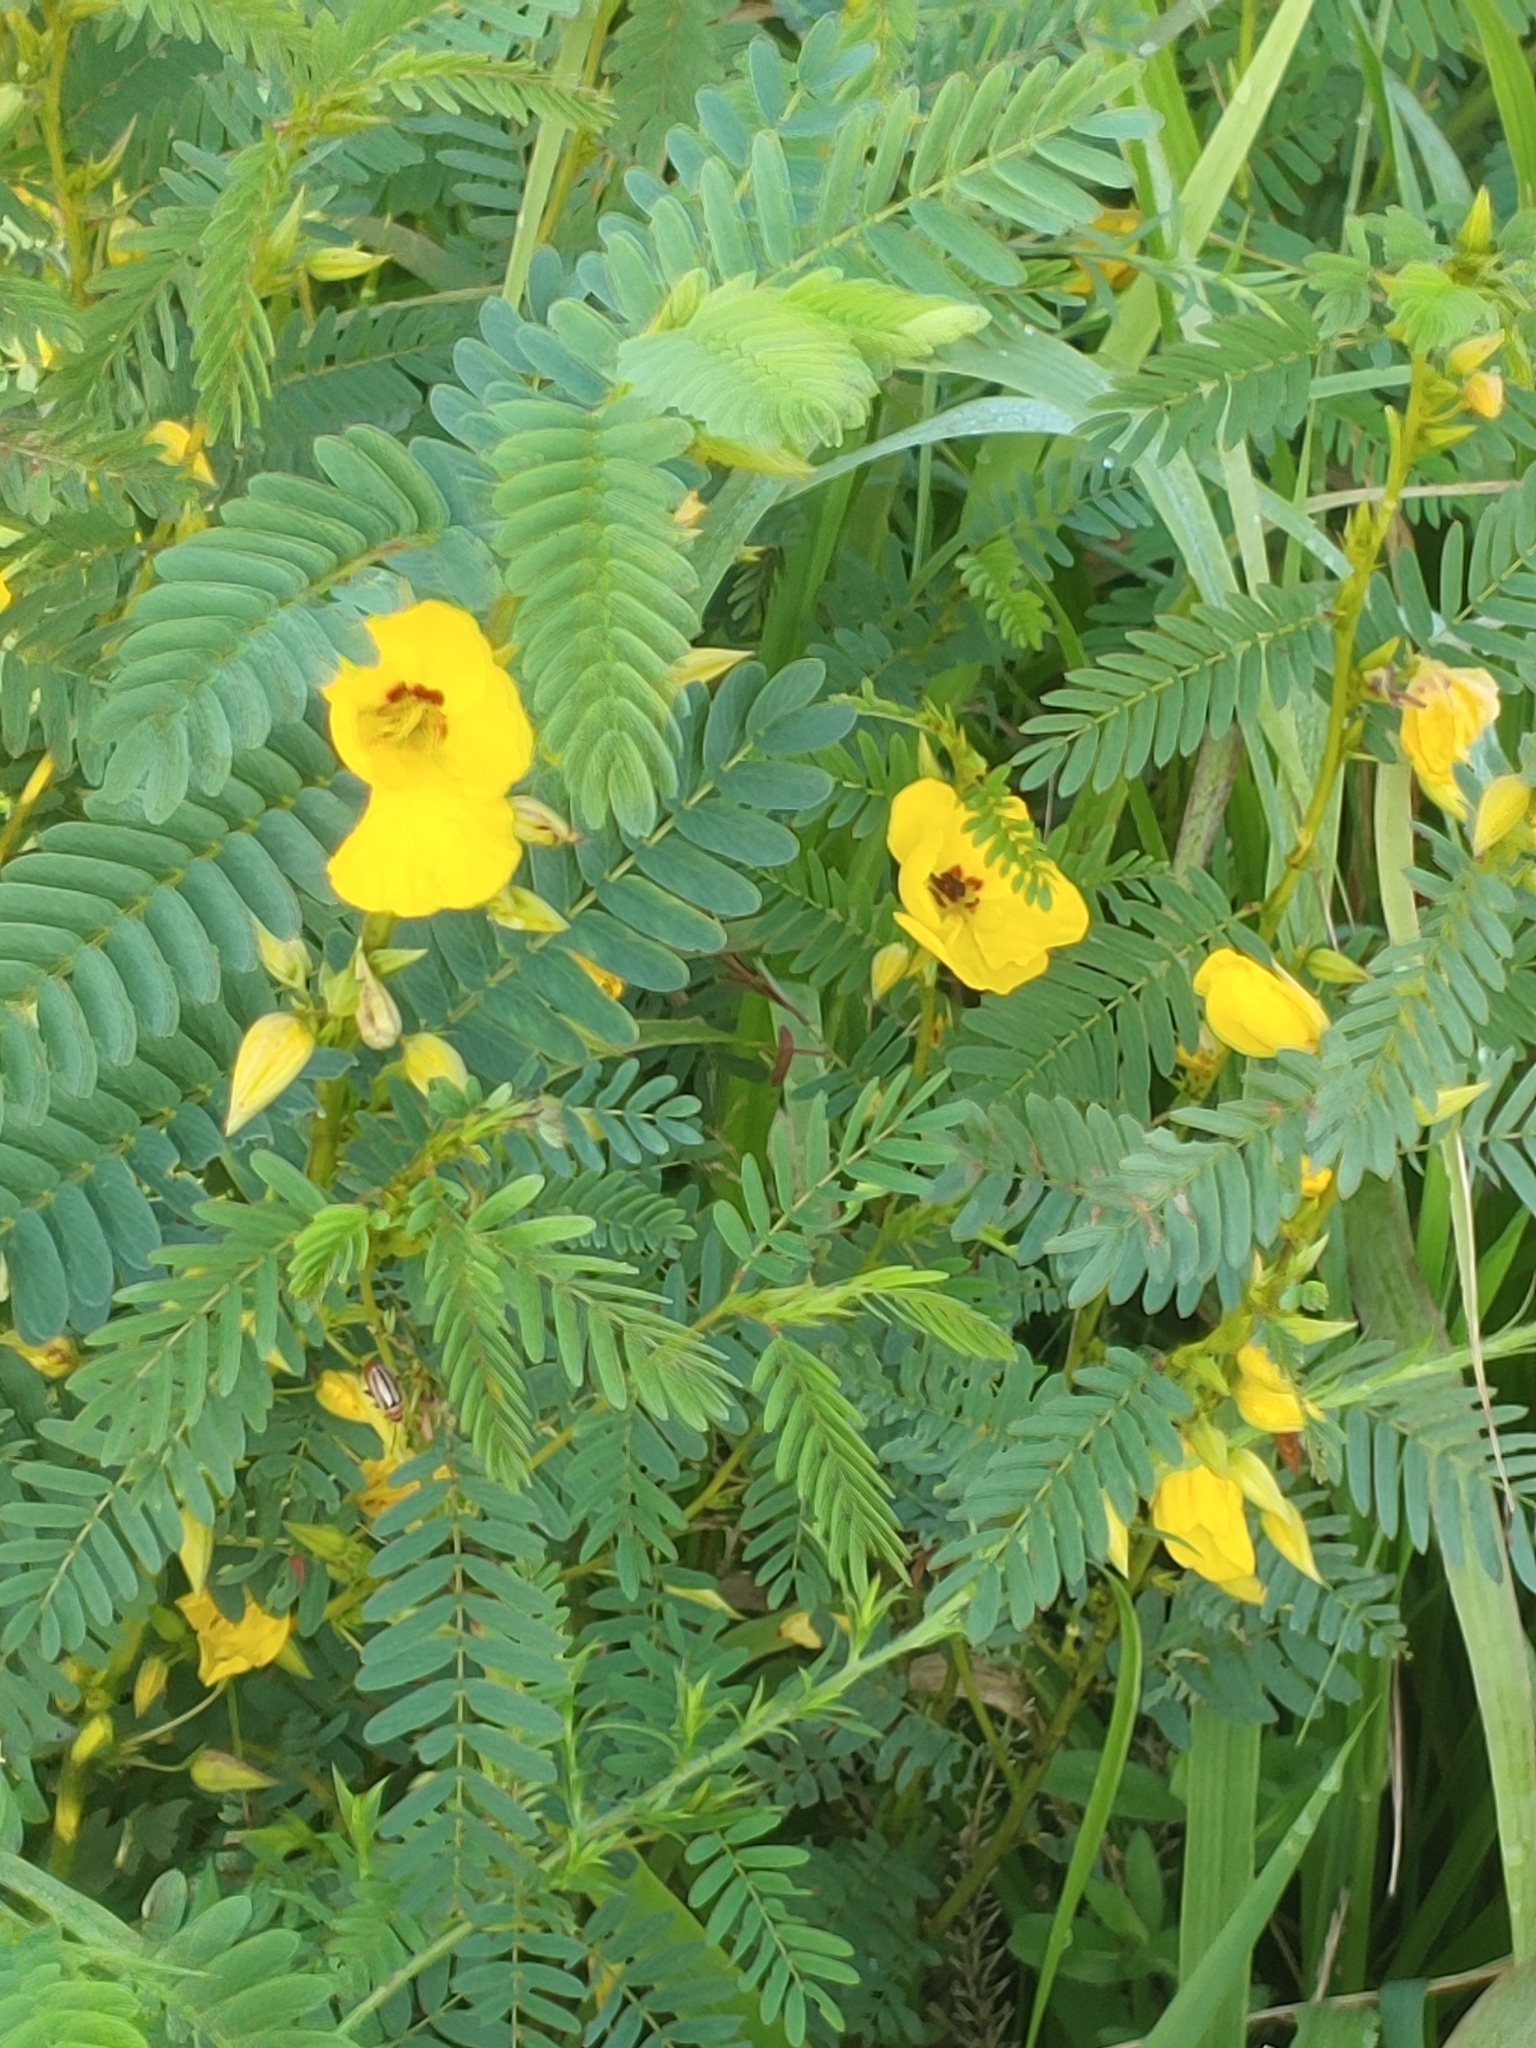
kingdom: Plantae
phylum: Tracheophyta
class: Magnoliopsida
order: Fabales
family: Fabaceae
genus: Chamaecrista
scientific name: Chamaecrista fasciculata
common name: Golden cassia
